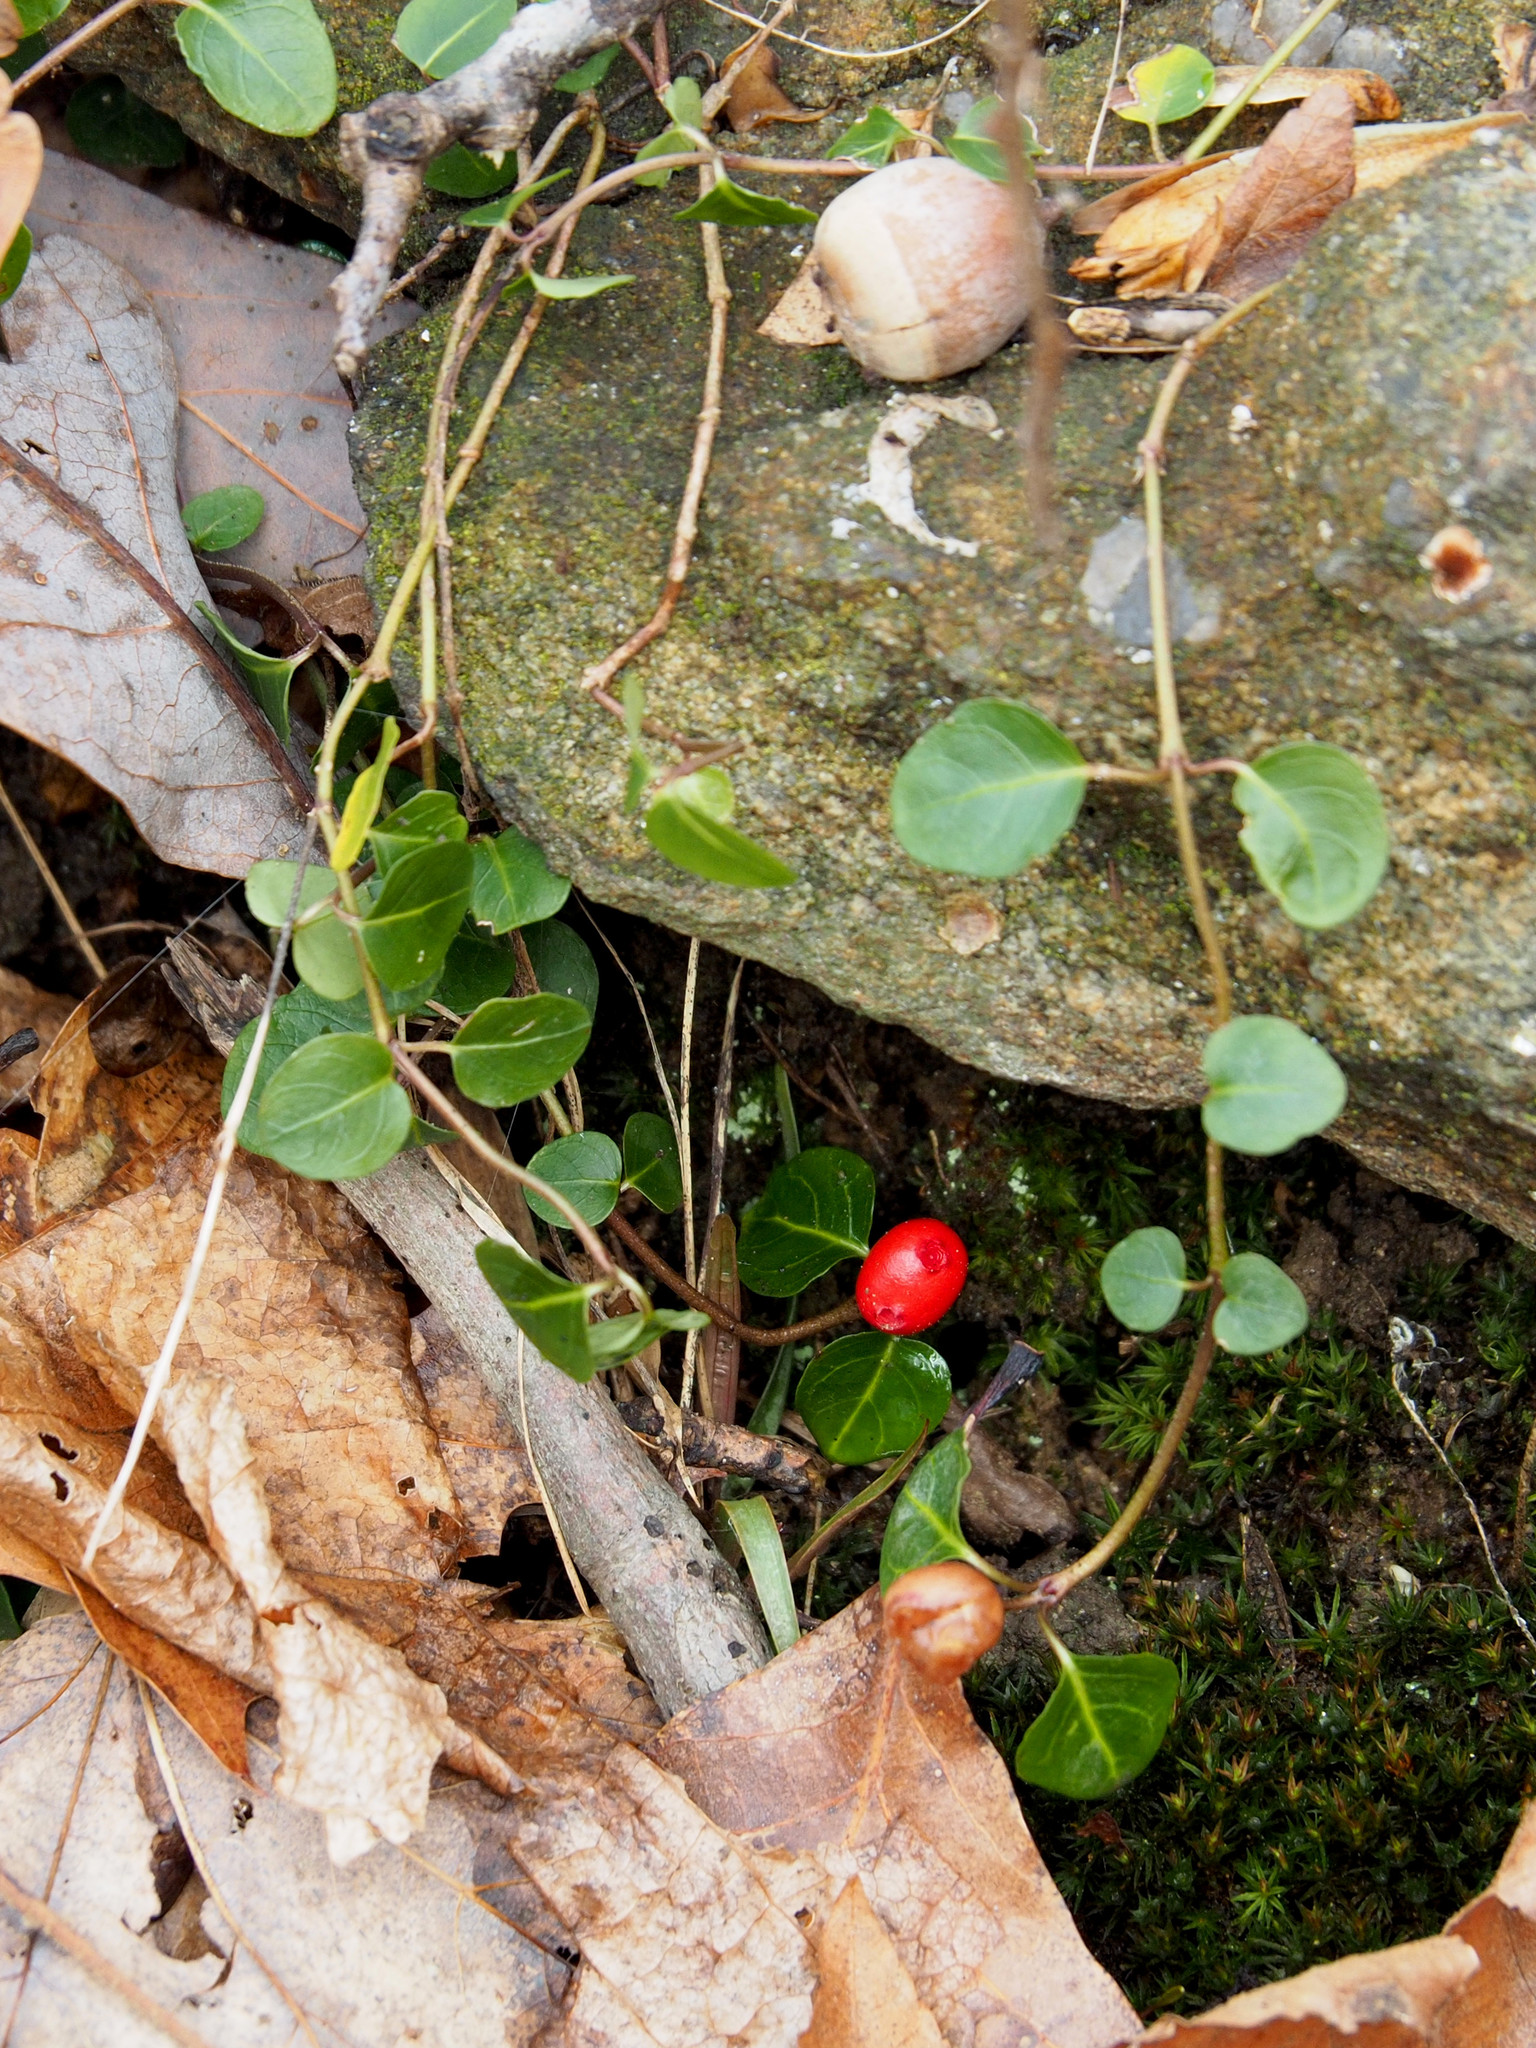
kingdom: Plantae
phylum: Tracheophyta
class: Magnoliopsida
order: Gentianales
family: Rubiaceae
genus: Mitchella
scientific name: Mitchella repens
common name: Partridge-berry
